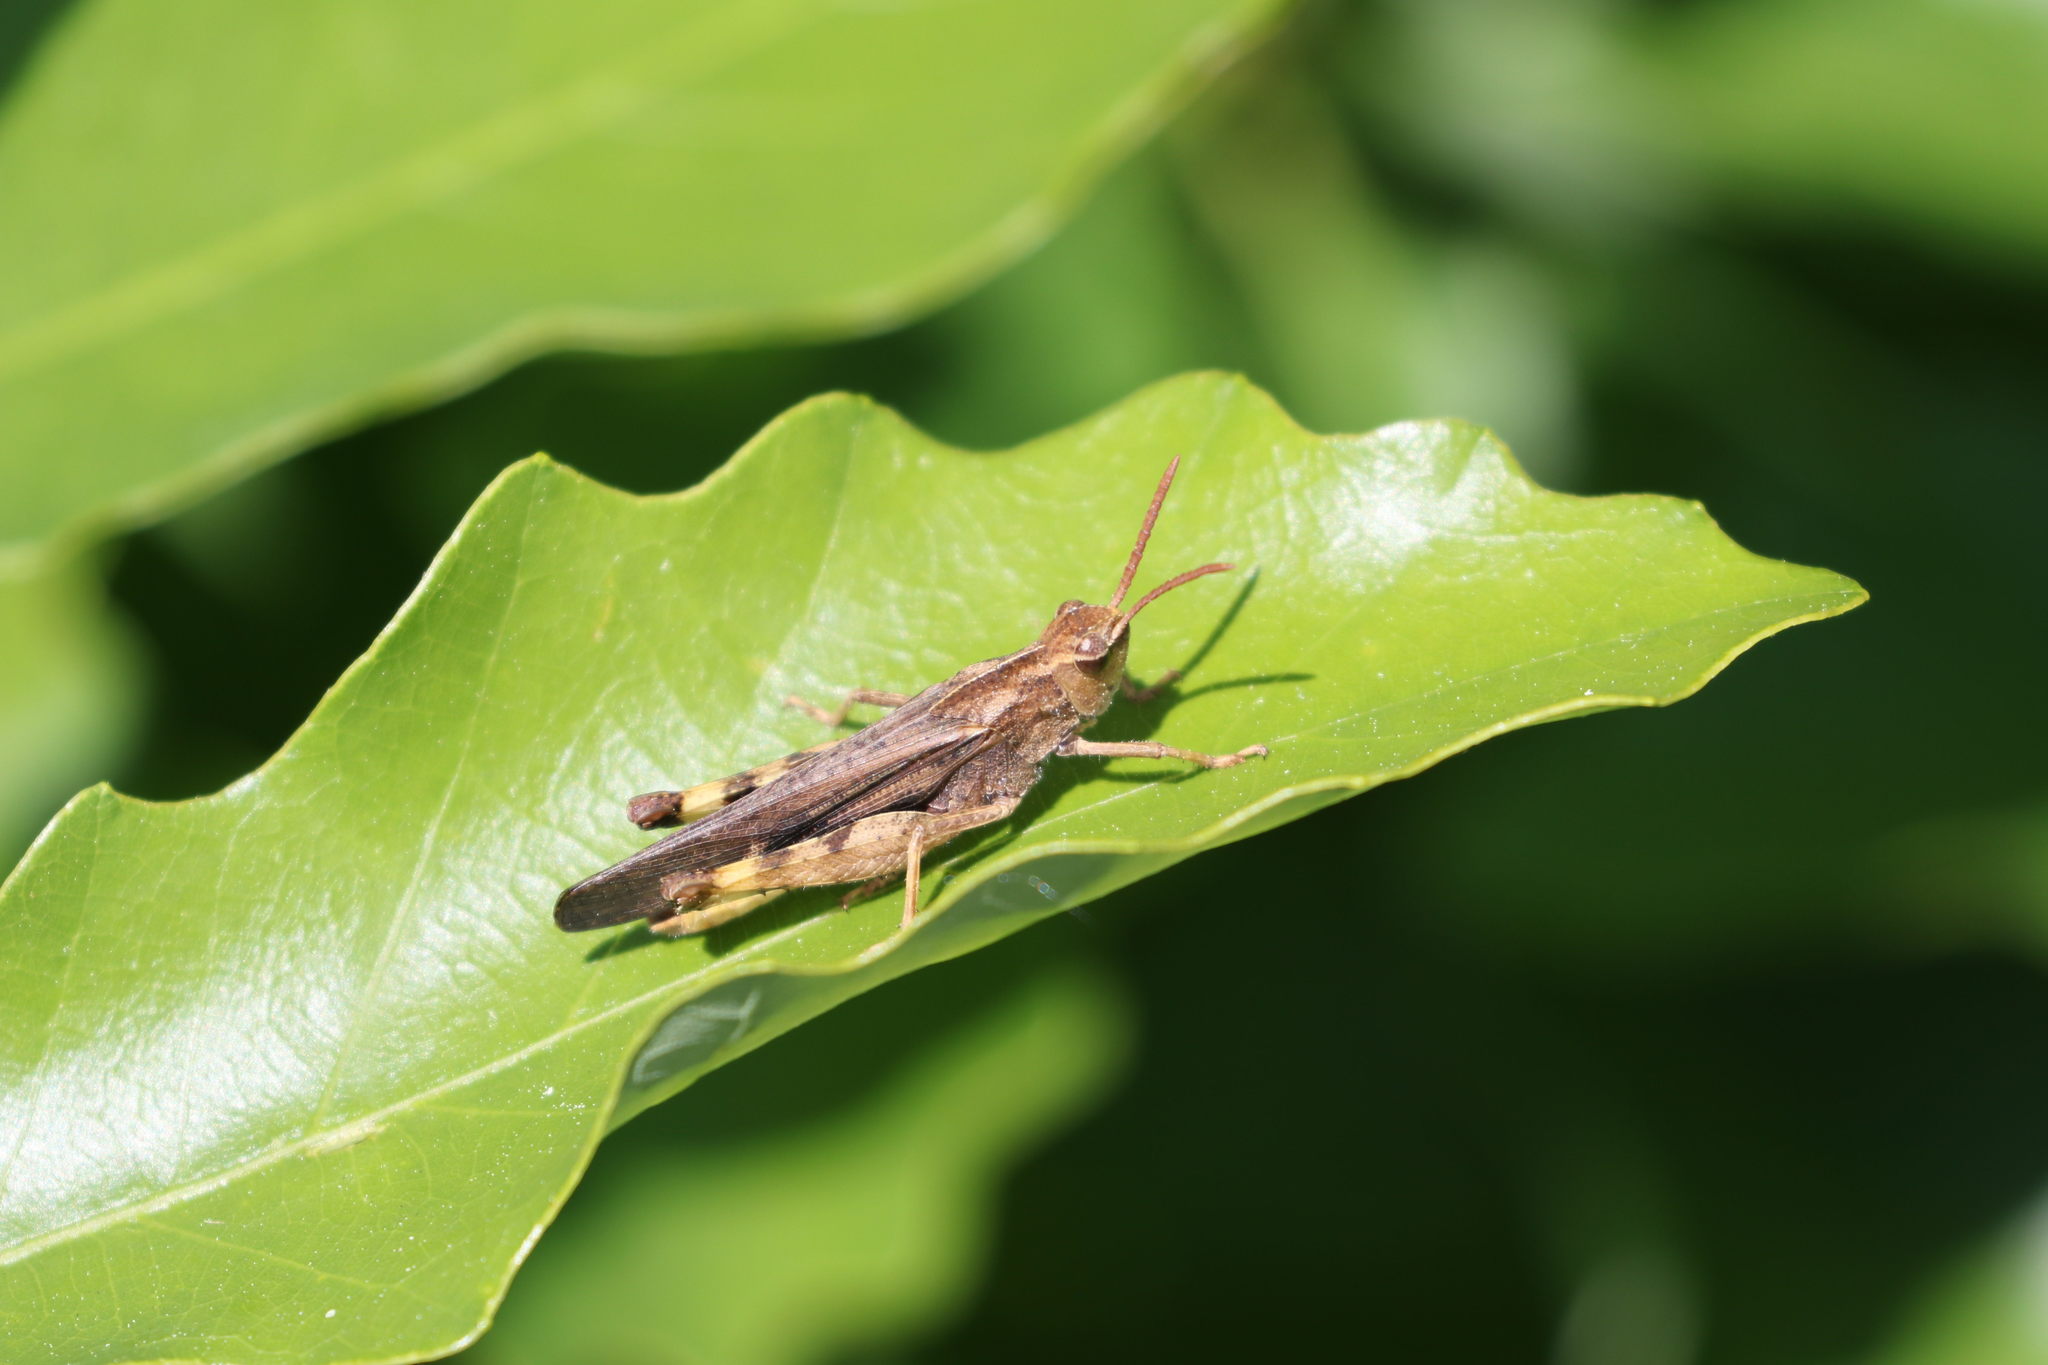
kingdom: Animalia
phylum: Arthropoda
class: Insecta
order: Orthoptera
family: Acrididae
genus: Chortophaga
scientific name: Chortophaga viridifasciata
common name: Green-striped grasshopper
